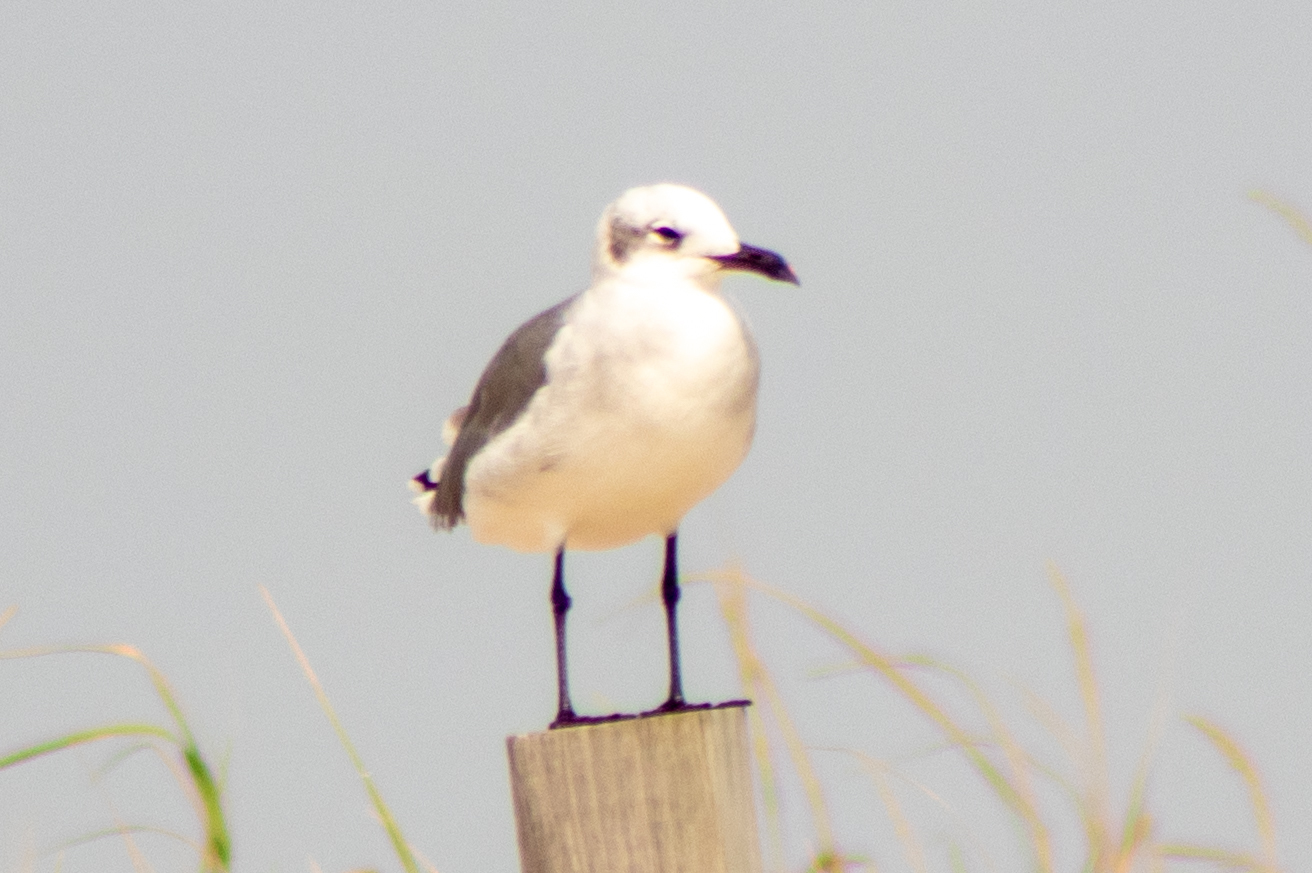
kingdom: Animalia
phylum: Chordata
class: Aves
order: Charadriiformes
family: Laridae
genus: Leucophaeus
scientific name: Leucophaeus atricilla
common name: Laughing gull
